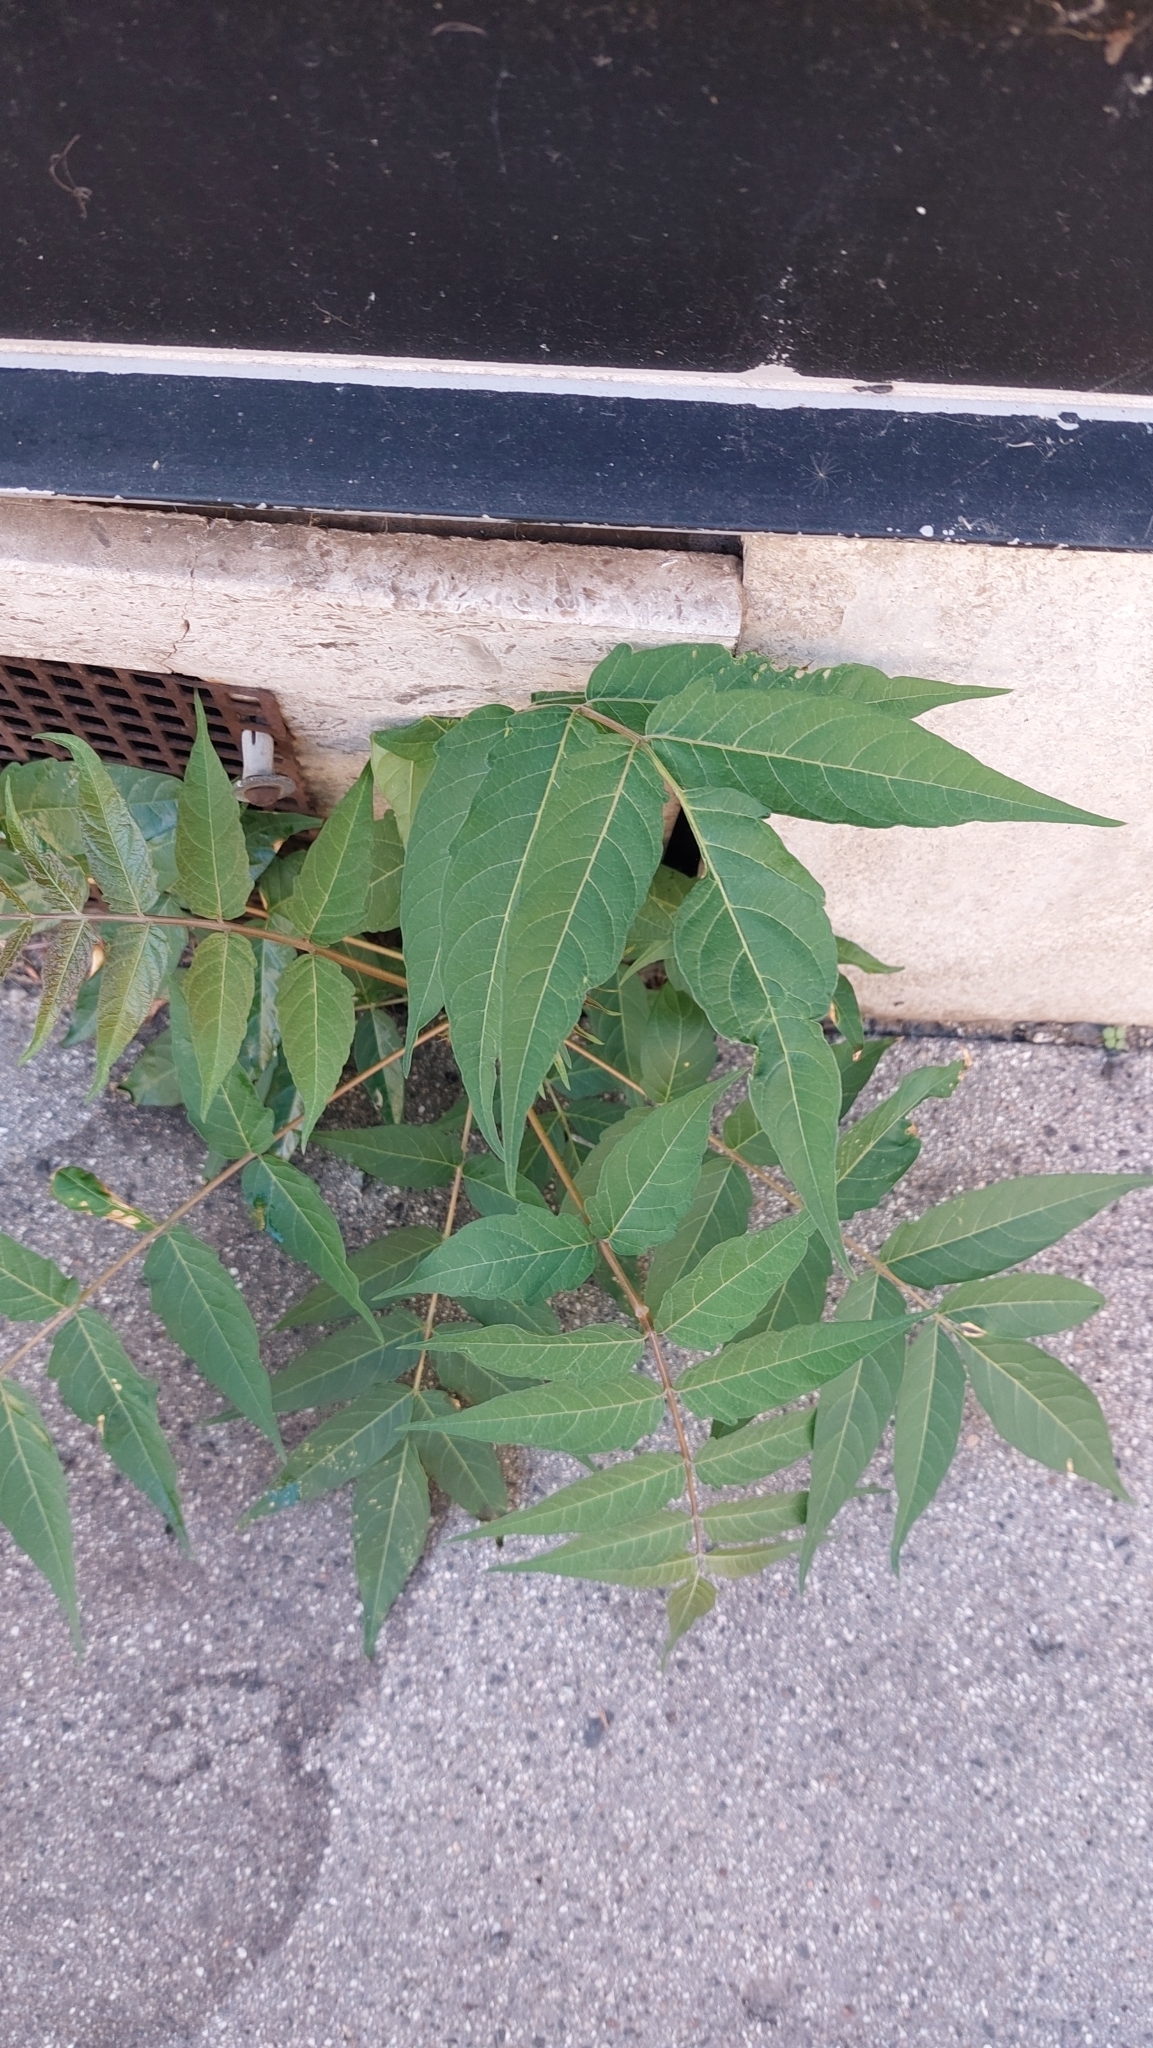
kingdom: Plantae
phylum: Tracheophyta
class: Magnoliopsida
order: Sapindales
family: Simaroubaceae
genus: Ailanthus
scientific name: Ailanthus altissima
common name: Tree-of-heaven
